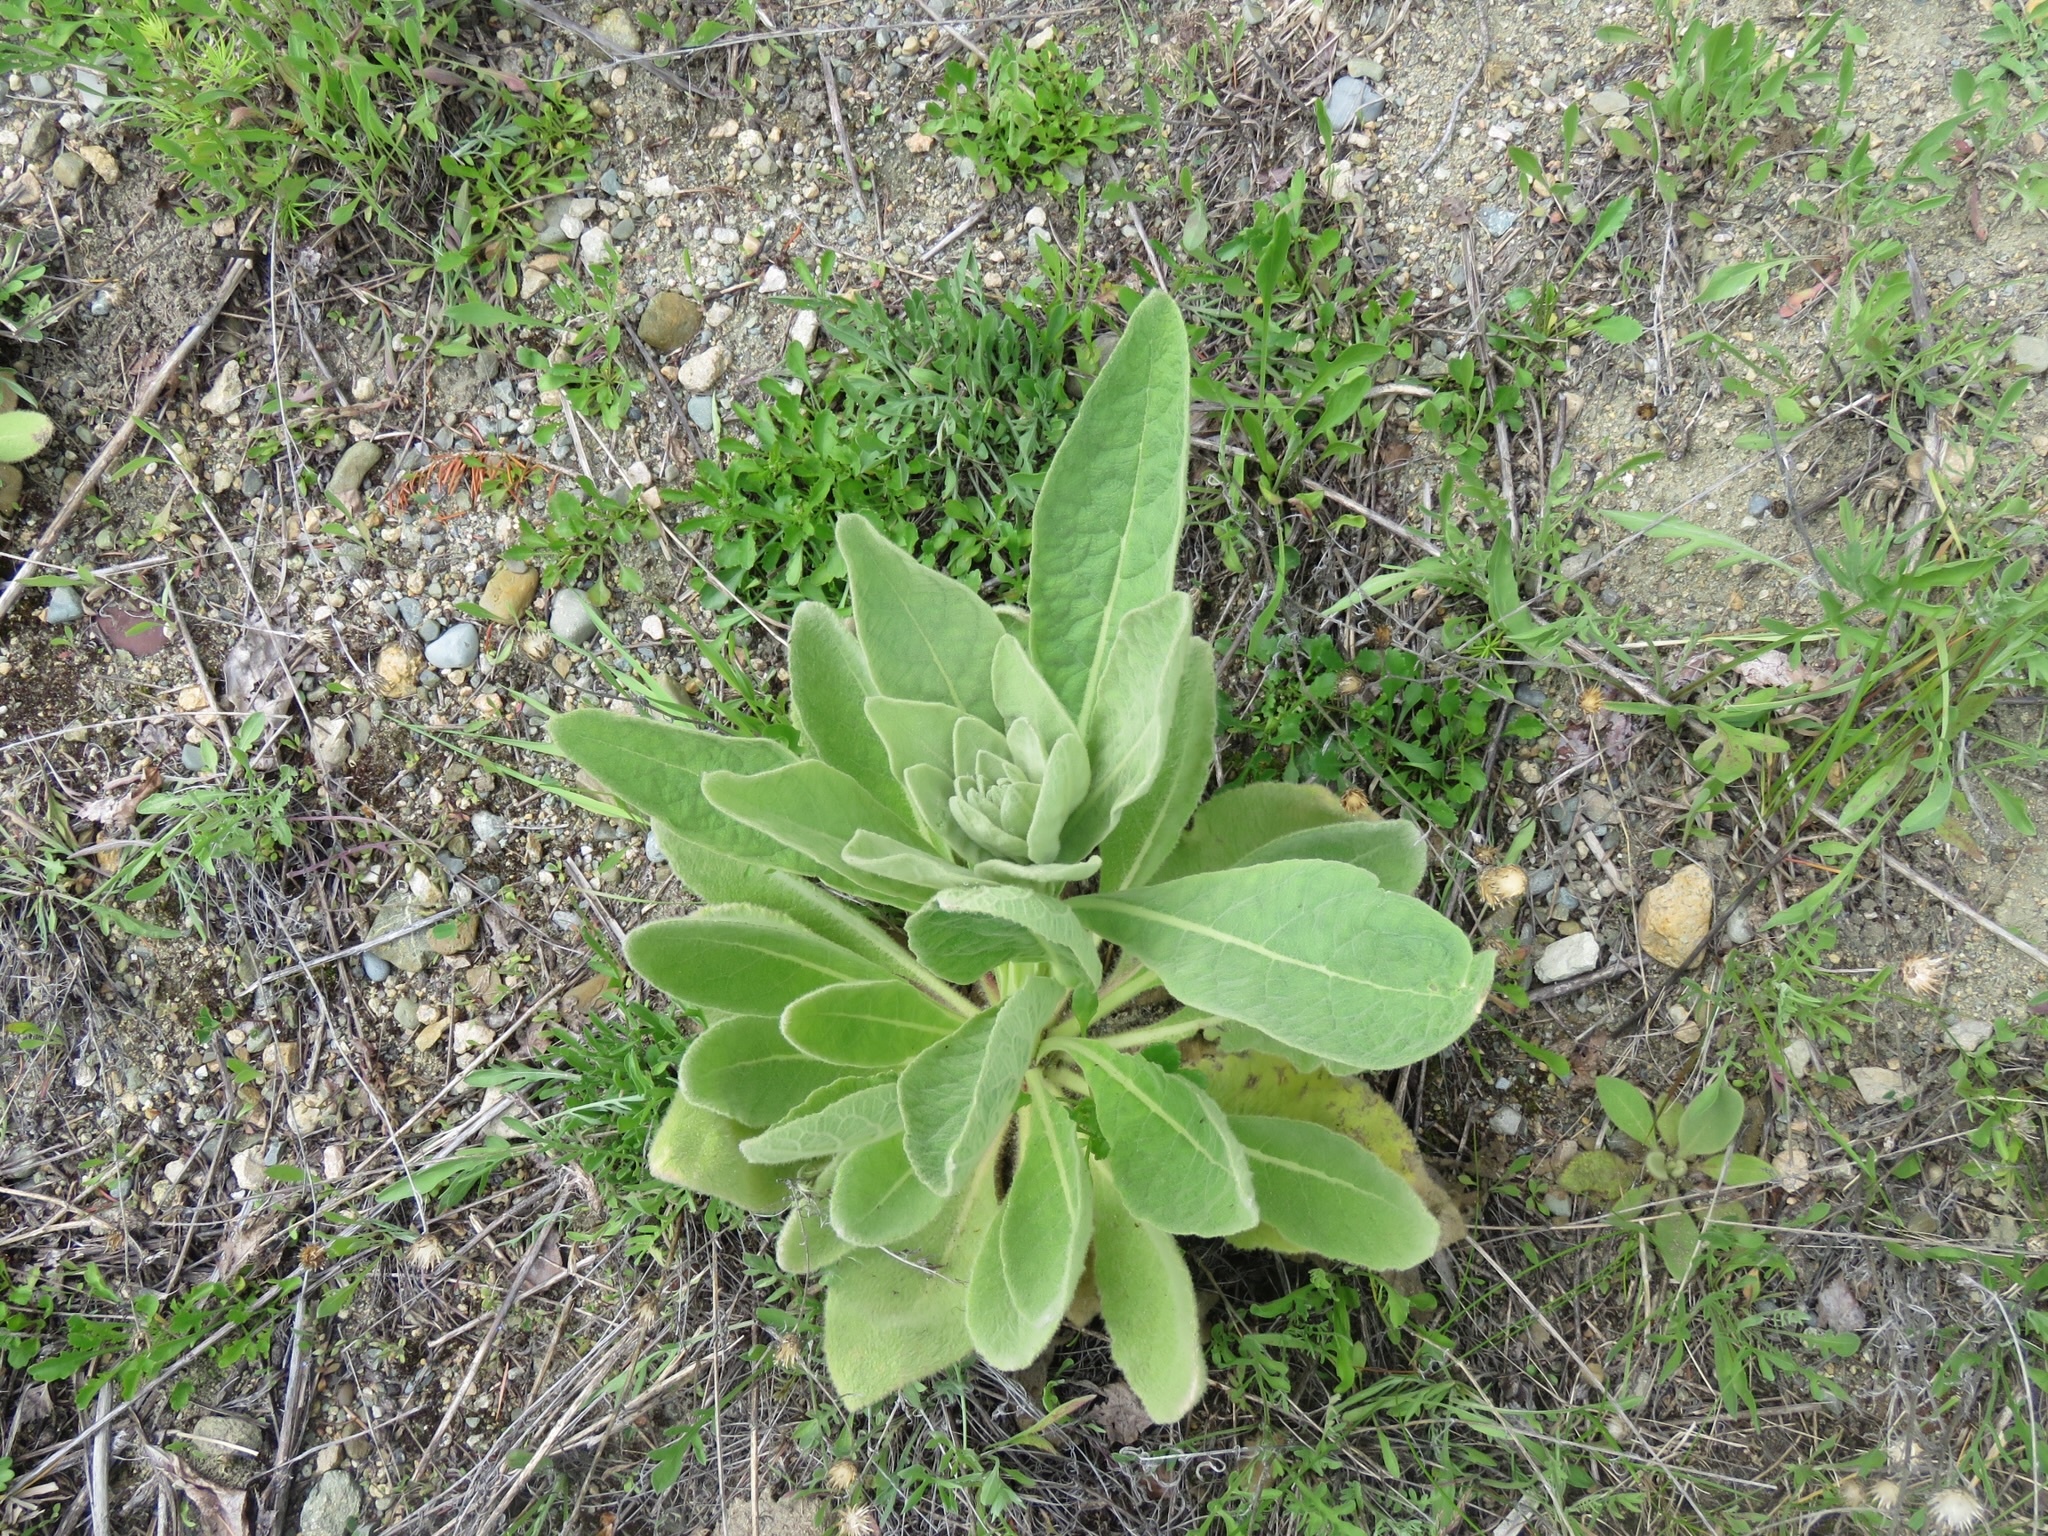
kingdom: Plantae
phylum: Tracheophyta
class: Magnoliopsida
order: Lamiales
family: Scrophulariaceae
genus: Verbascum
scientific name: Verbascum thapsus
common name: Common mullein
